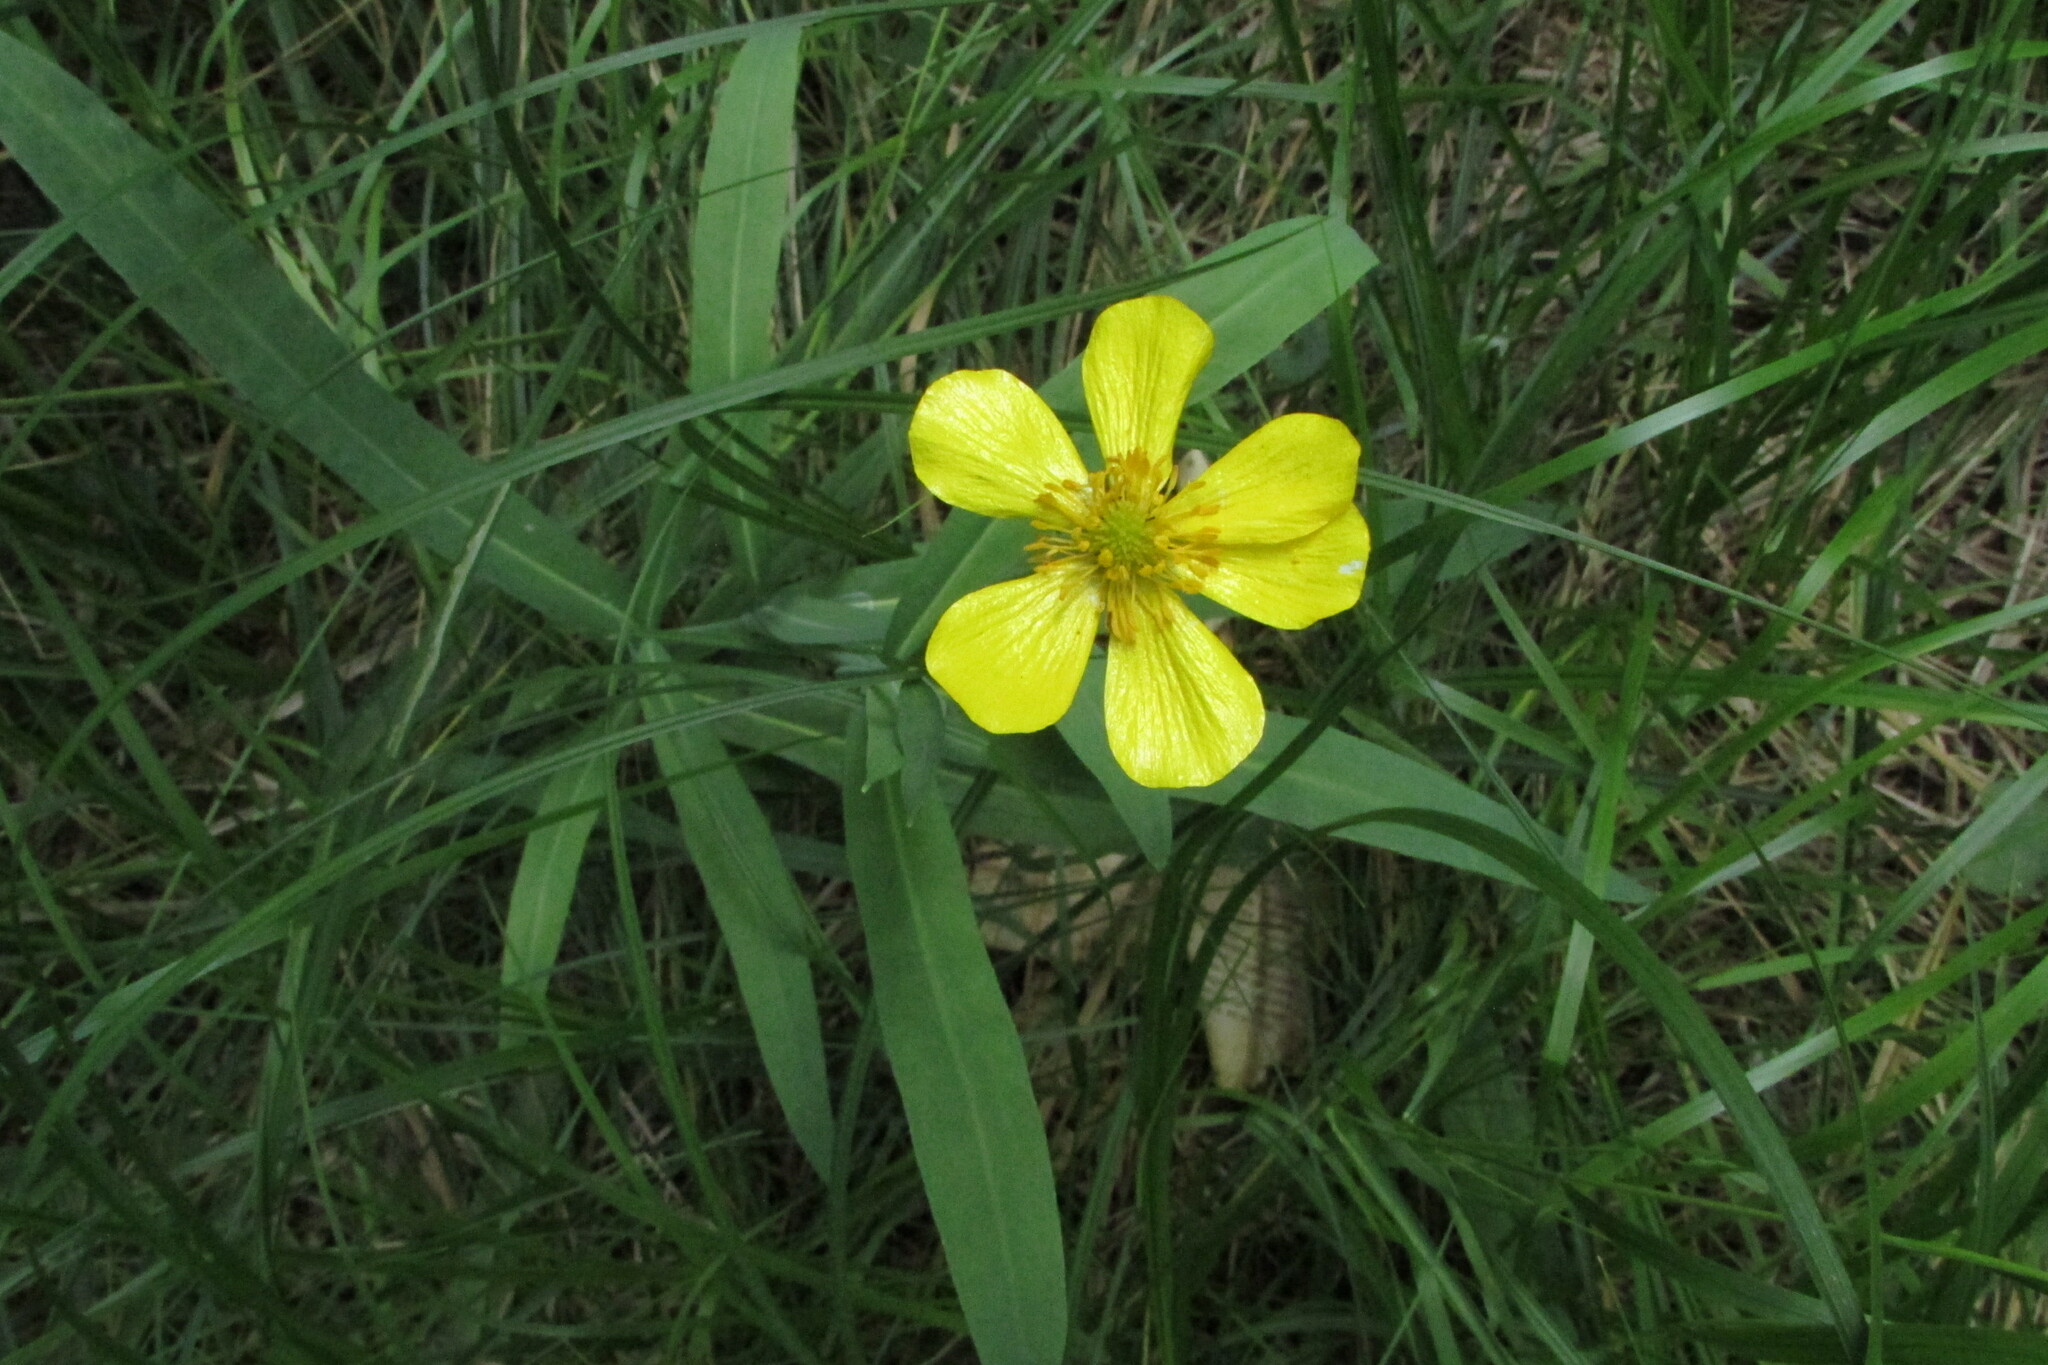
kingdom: Plantae
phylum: Tracheophyta
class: Magnoliopsida
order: Ranunculales
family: Ranunculaceae
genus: Ranunculus
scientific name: Ranunculus lingua
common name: Greater spearwort
